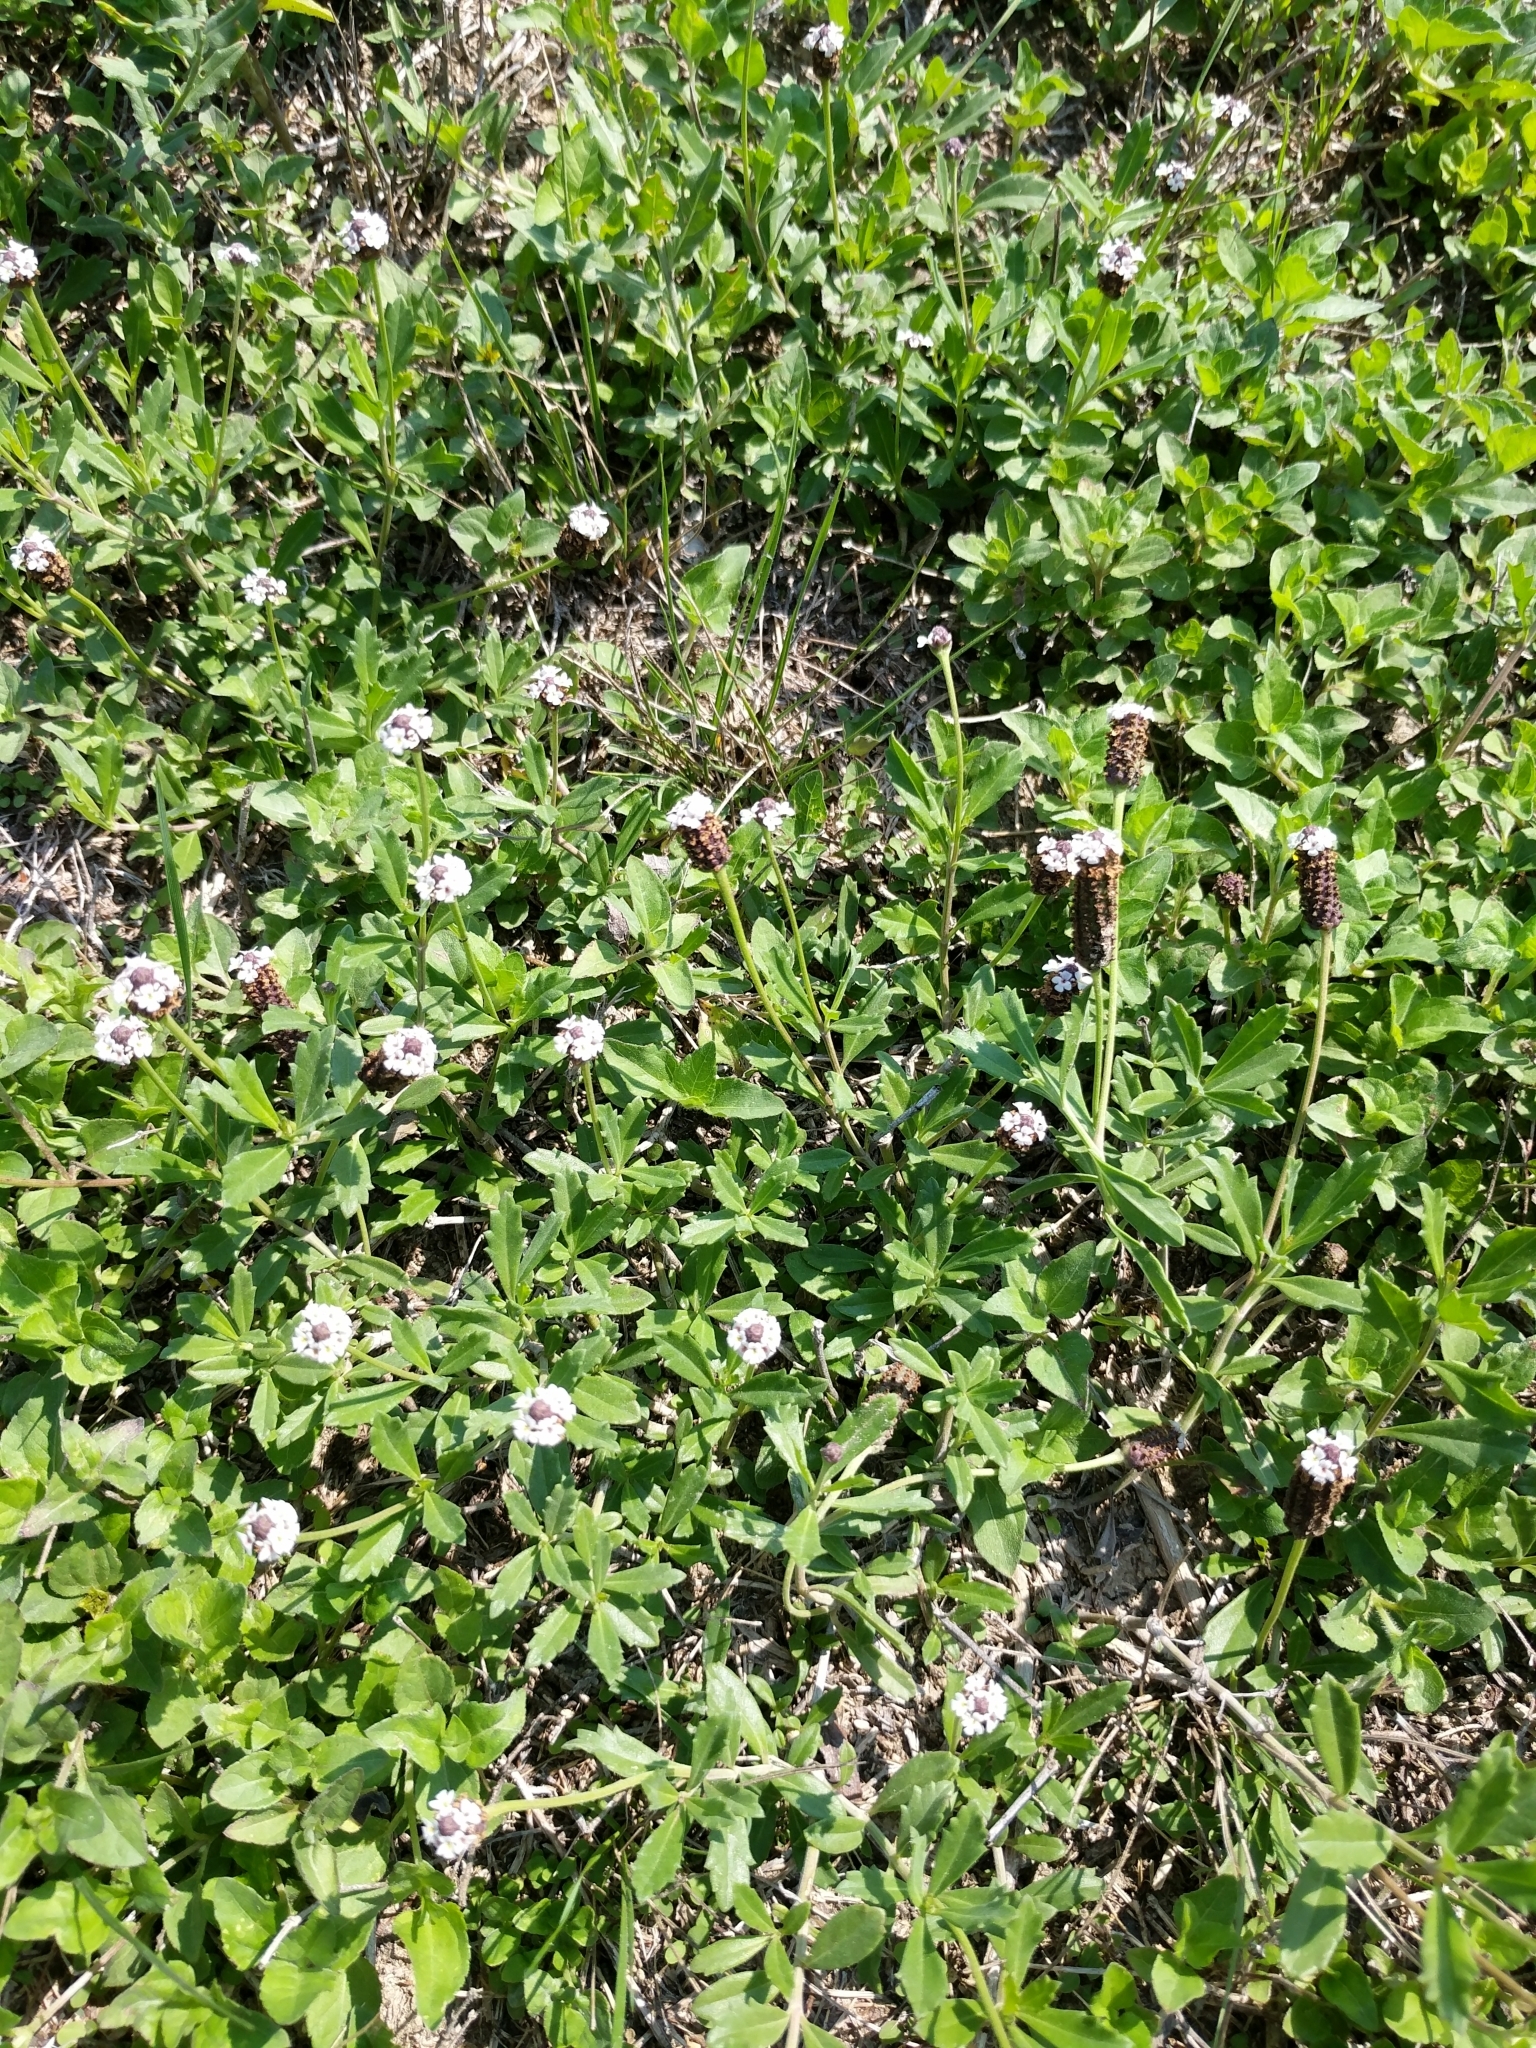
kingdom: Plantae
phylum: Tracheophyta
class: Magnoliopsida
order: Lamiales
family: Verbenaceae
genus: Phyla
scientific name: Phyla nodiflora
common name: Frogfruit
